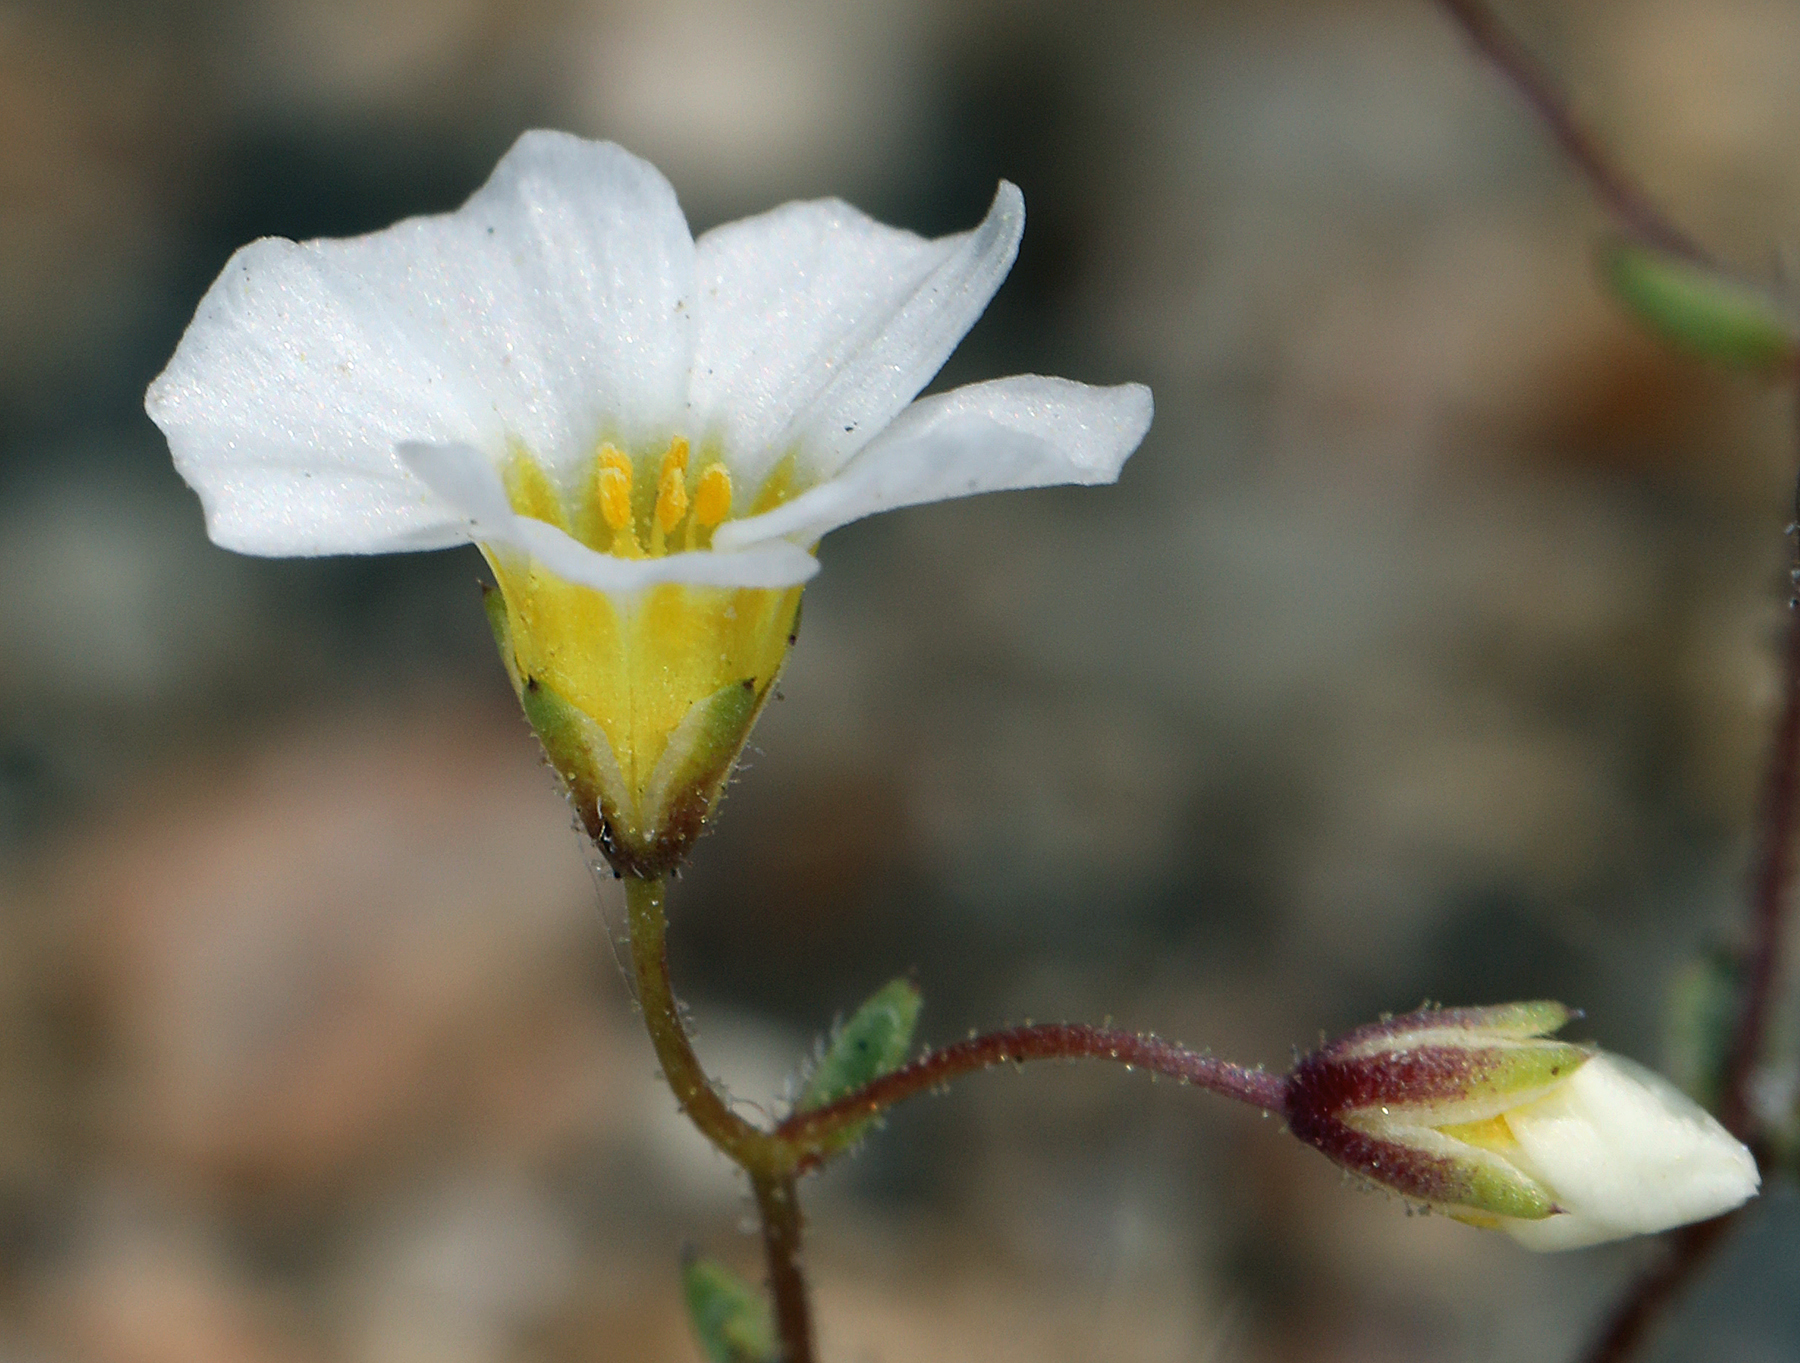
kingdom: Plantae
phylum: Tracheophyta
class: Magnoliopsida
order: Ericales
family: Polemoniaceae
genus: Linanthus
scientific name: Linanthus inyoensis
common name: Inyo gilia
